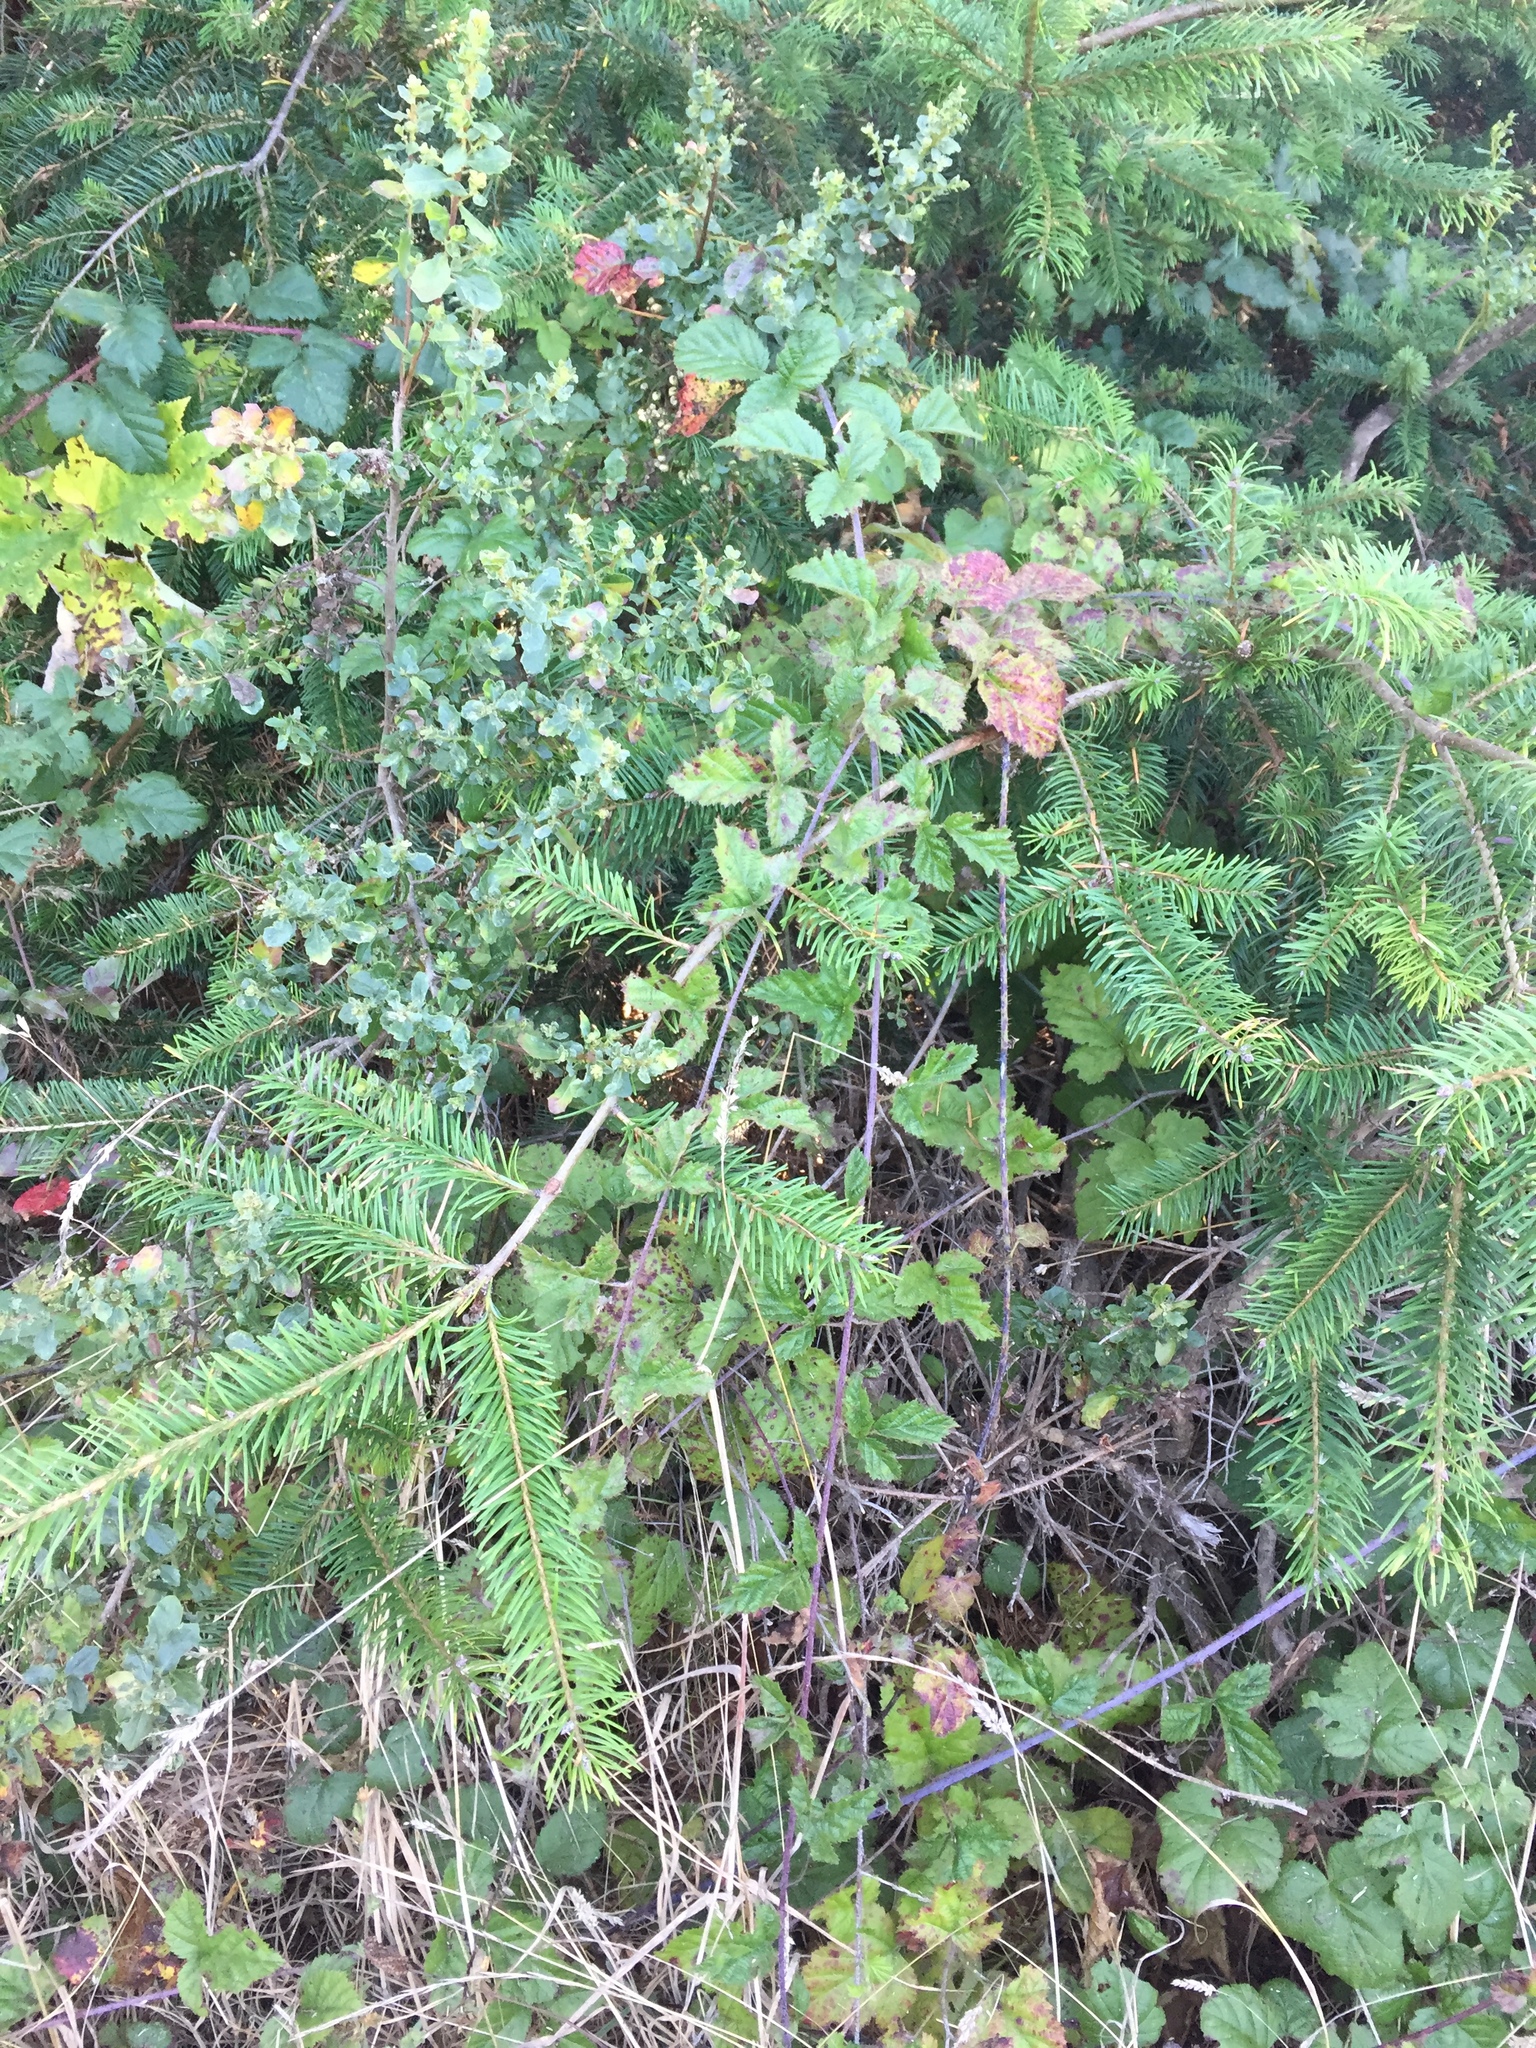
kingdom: Plantae
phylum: Tracheophyta
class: Magnoliopsida
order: Rosales
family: Rosaceae
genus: Rubus
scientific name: Rubus ursinus
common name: Pacific blackberry
